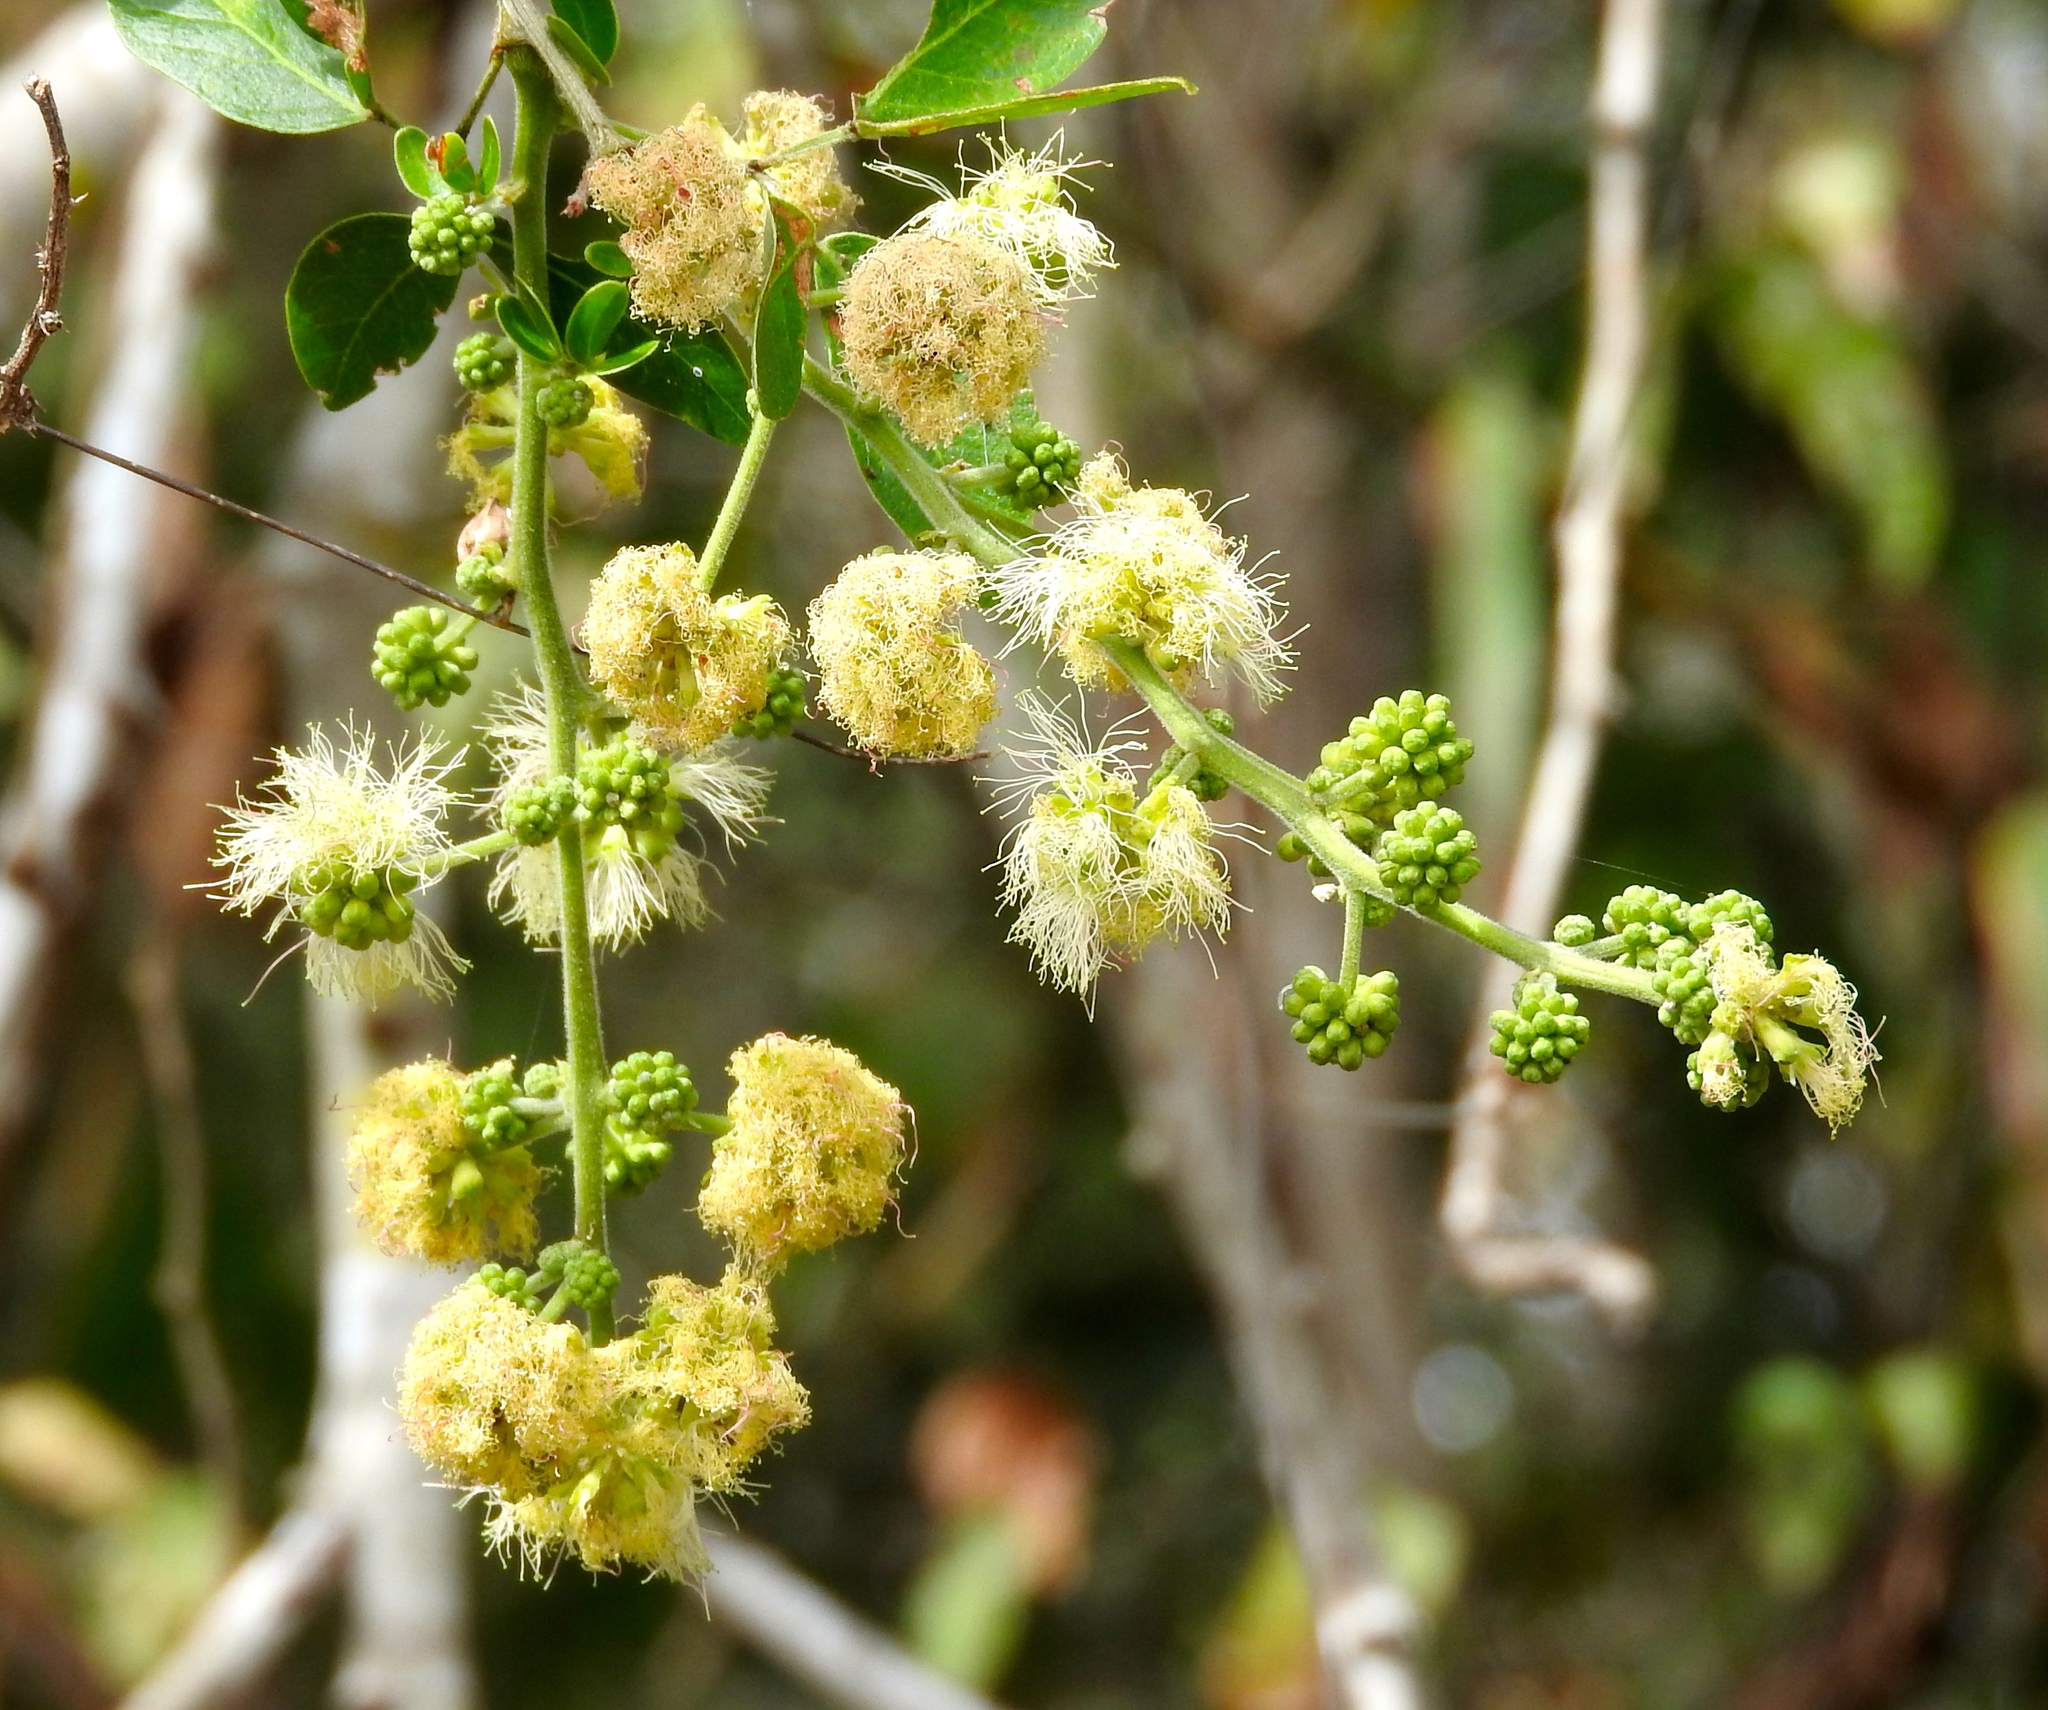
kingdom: Plantae
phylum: Tracheophyta
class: Magnoliopsida
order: Fabales
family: Fabaceae
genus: Pithecellobium
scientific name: Pithecellobium dulce
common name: Monkeypod
